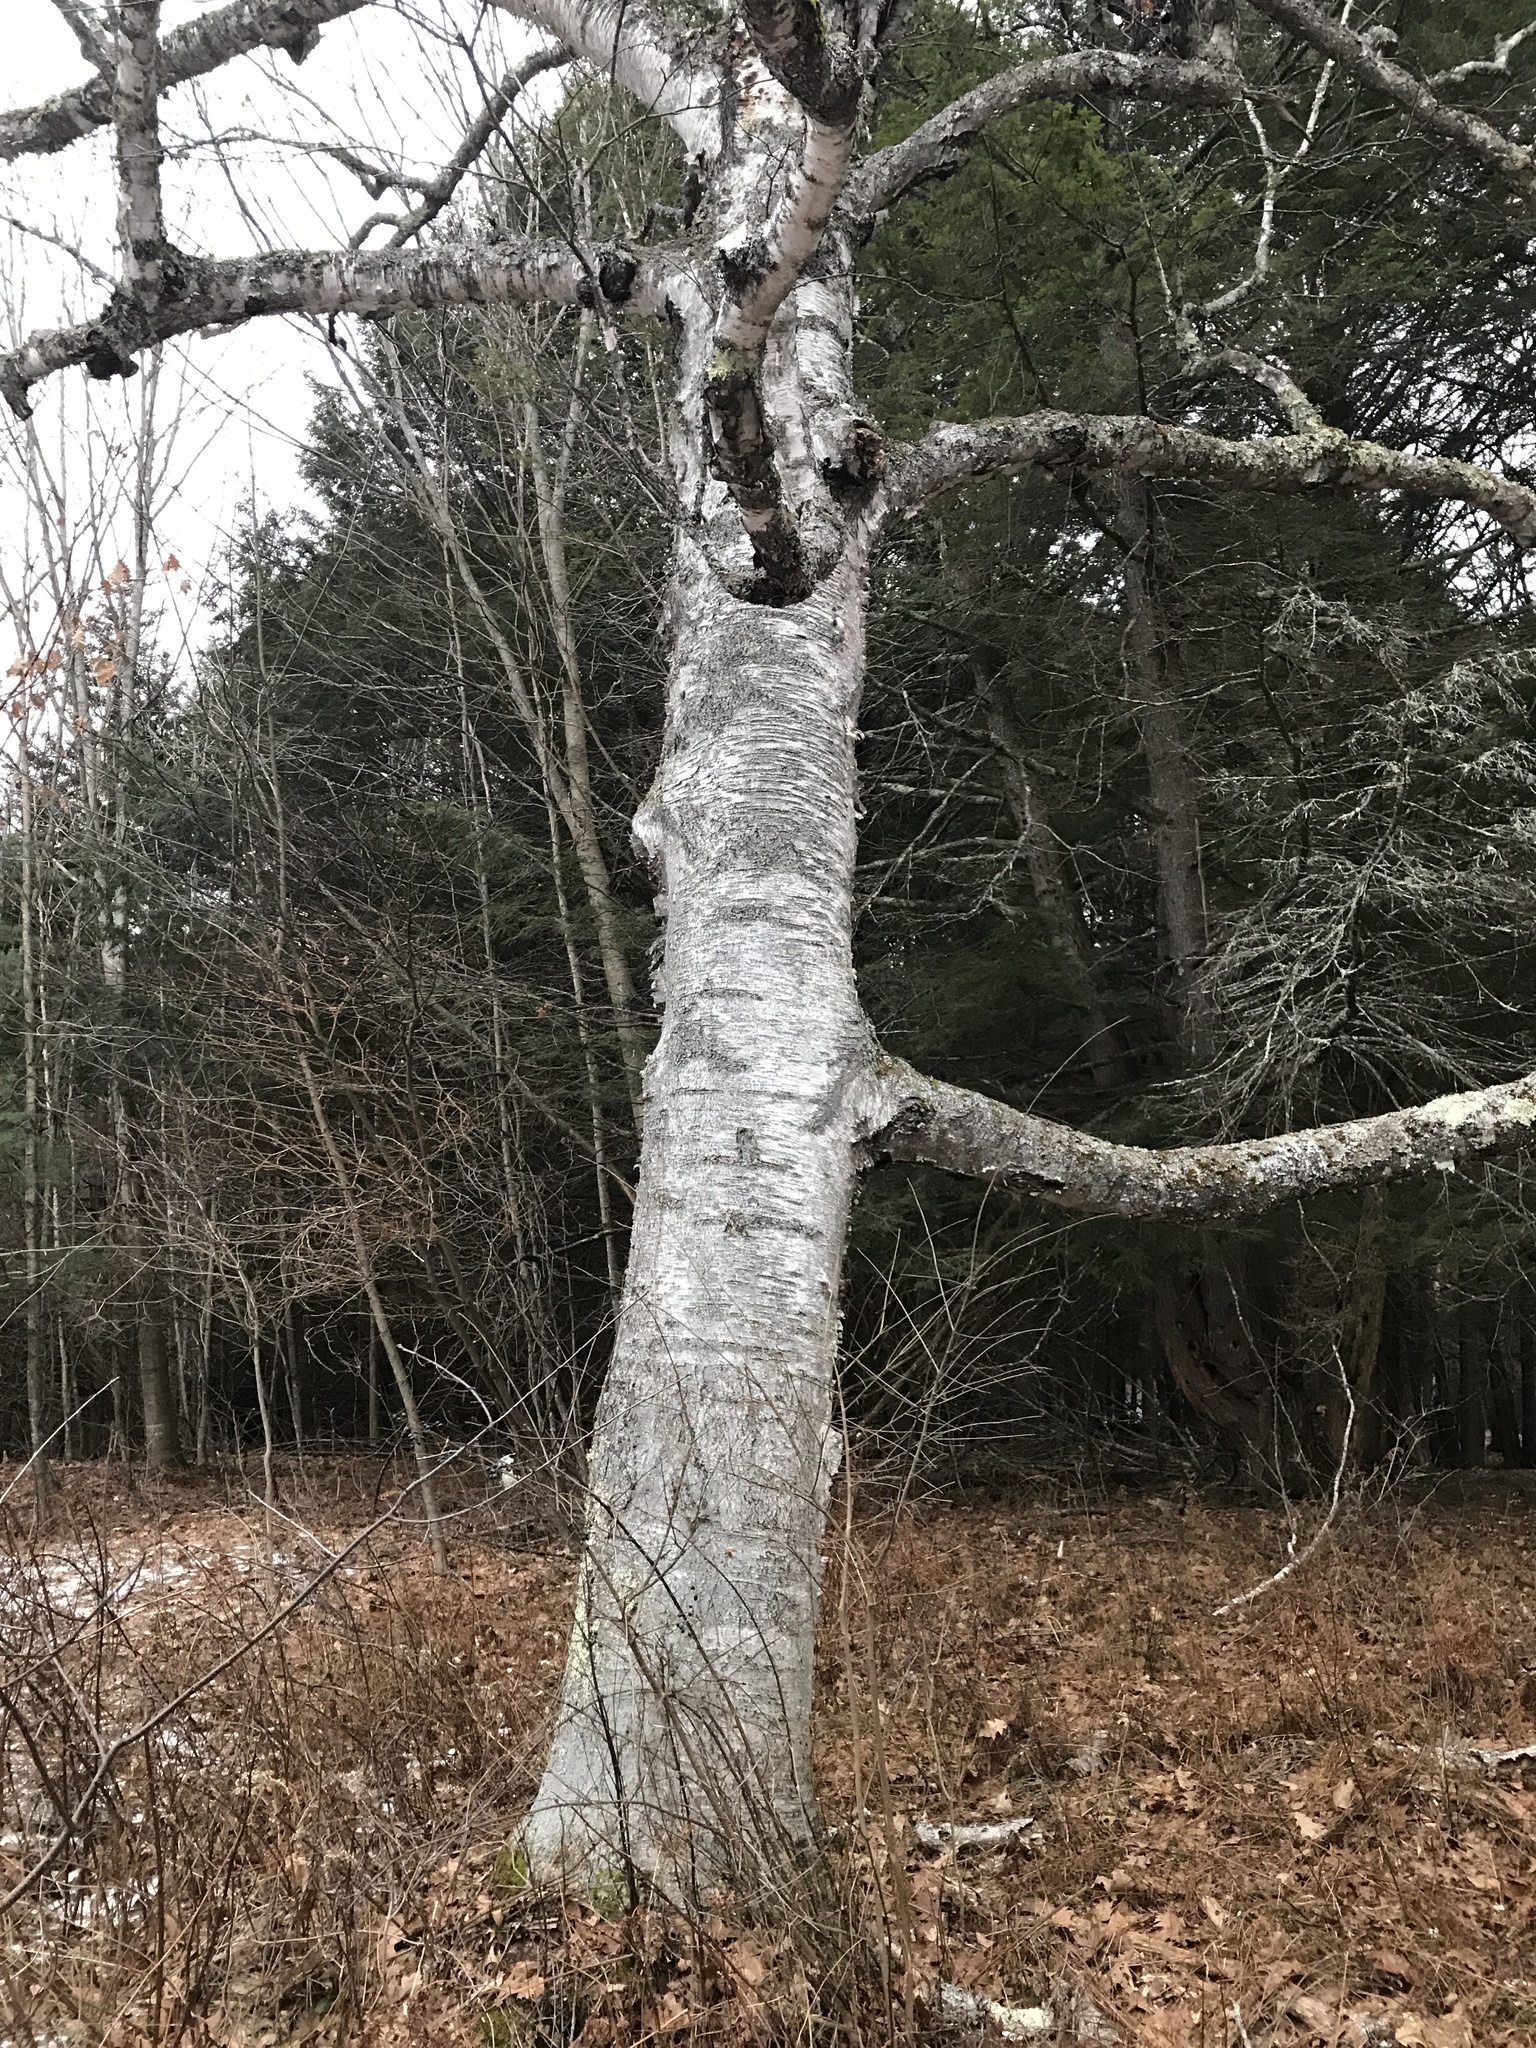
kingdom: Plantae
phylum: Tracheophyta
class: Magnoliopsida
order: Fagales
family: Betulaceae
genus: Betula
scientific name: Betula papyrifera
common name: Paper birch
